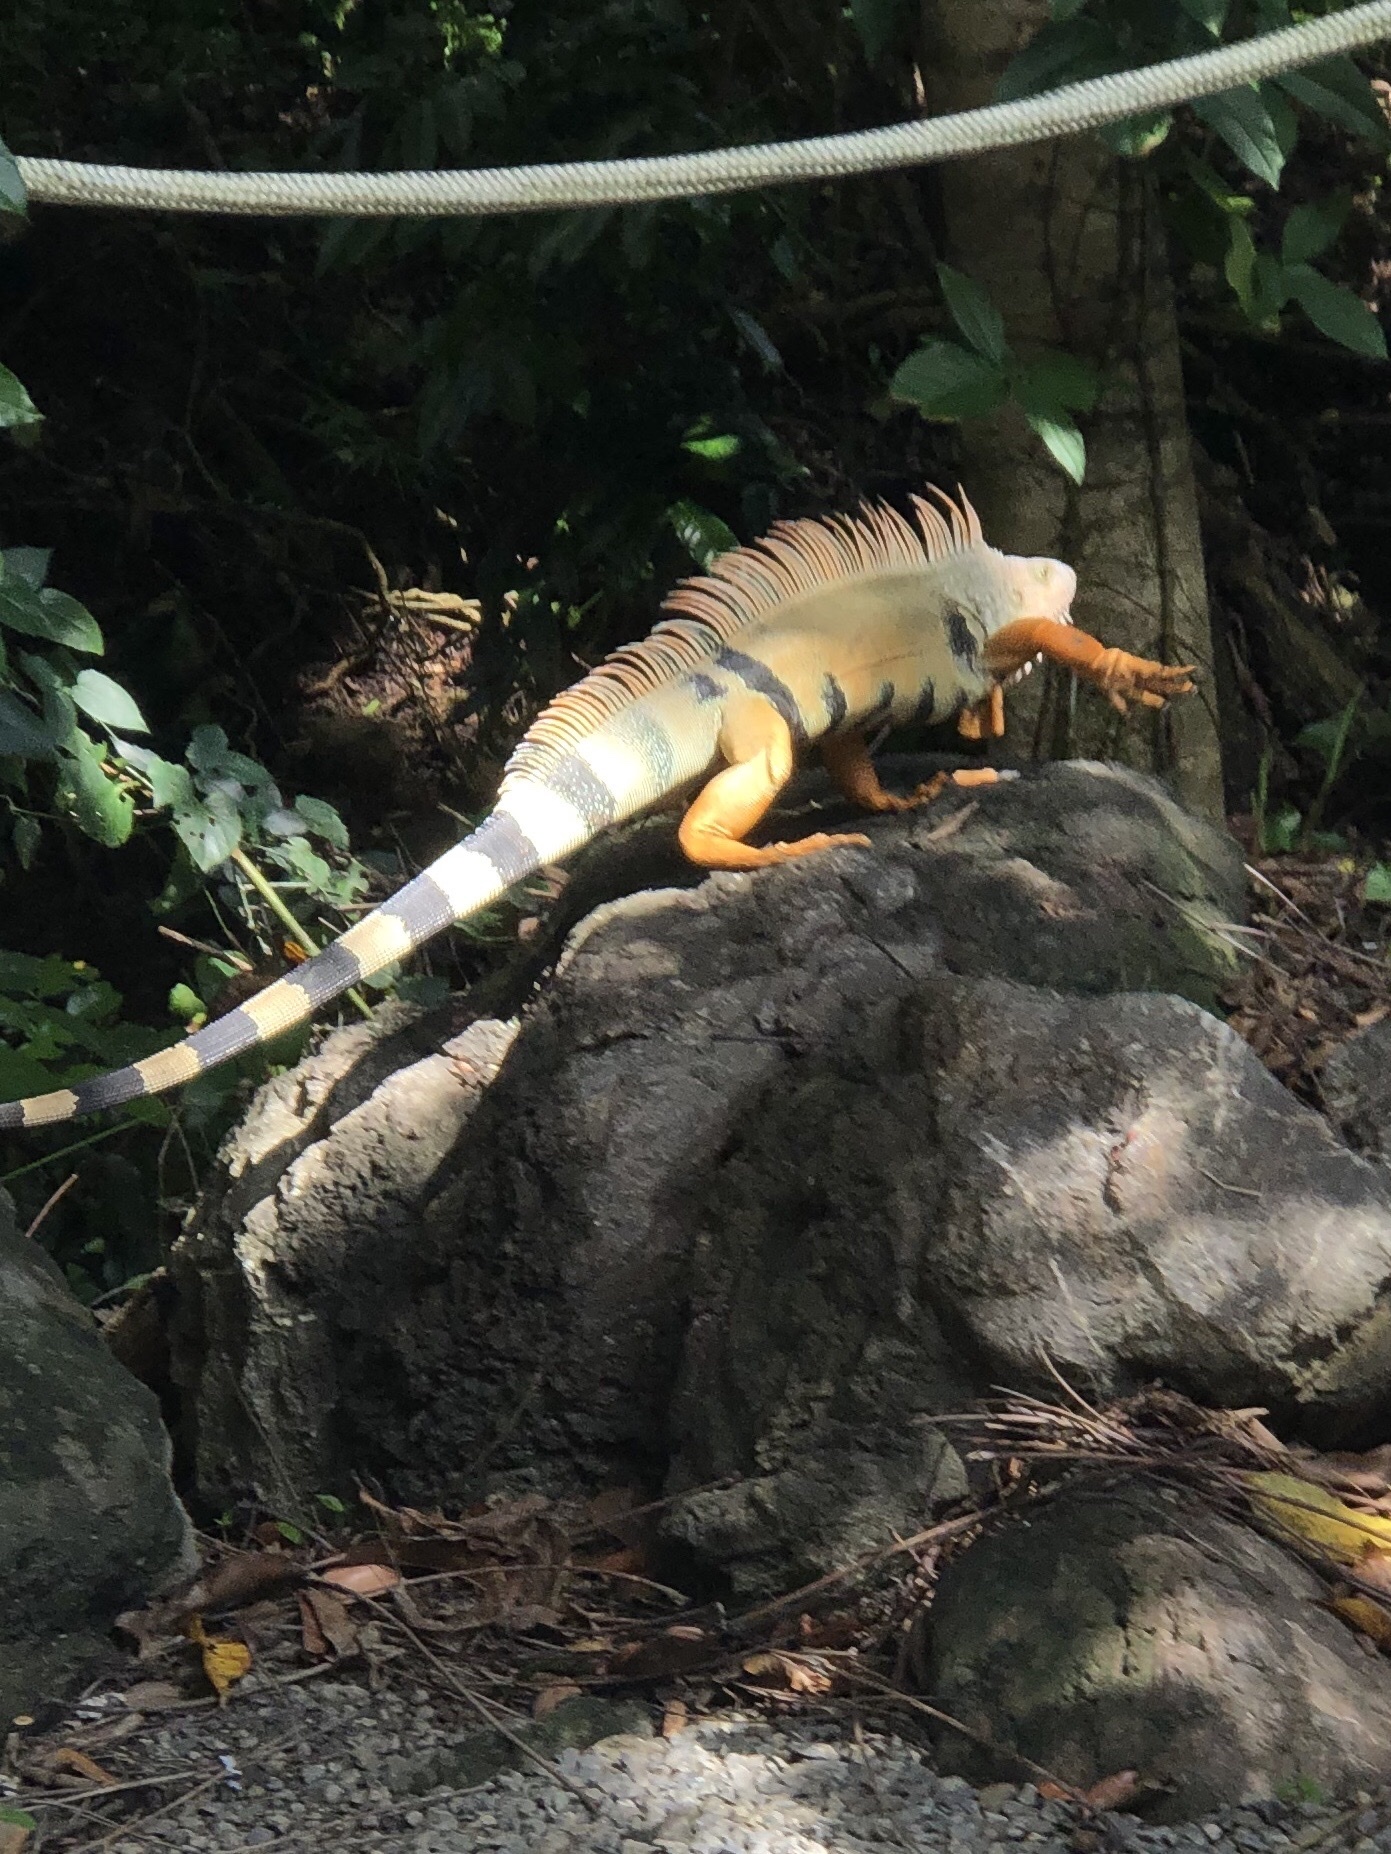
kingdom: Animalia
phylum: Chordata
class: Squamata
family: Iguanidae
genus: Iguana
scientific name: Iguana iguana
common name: Green iguana
